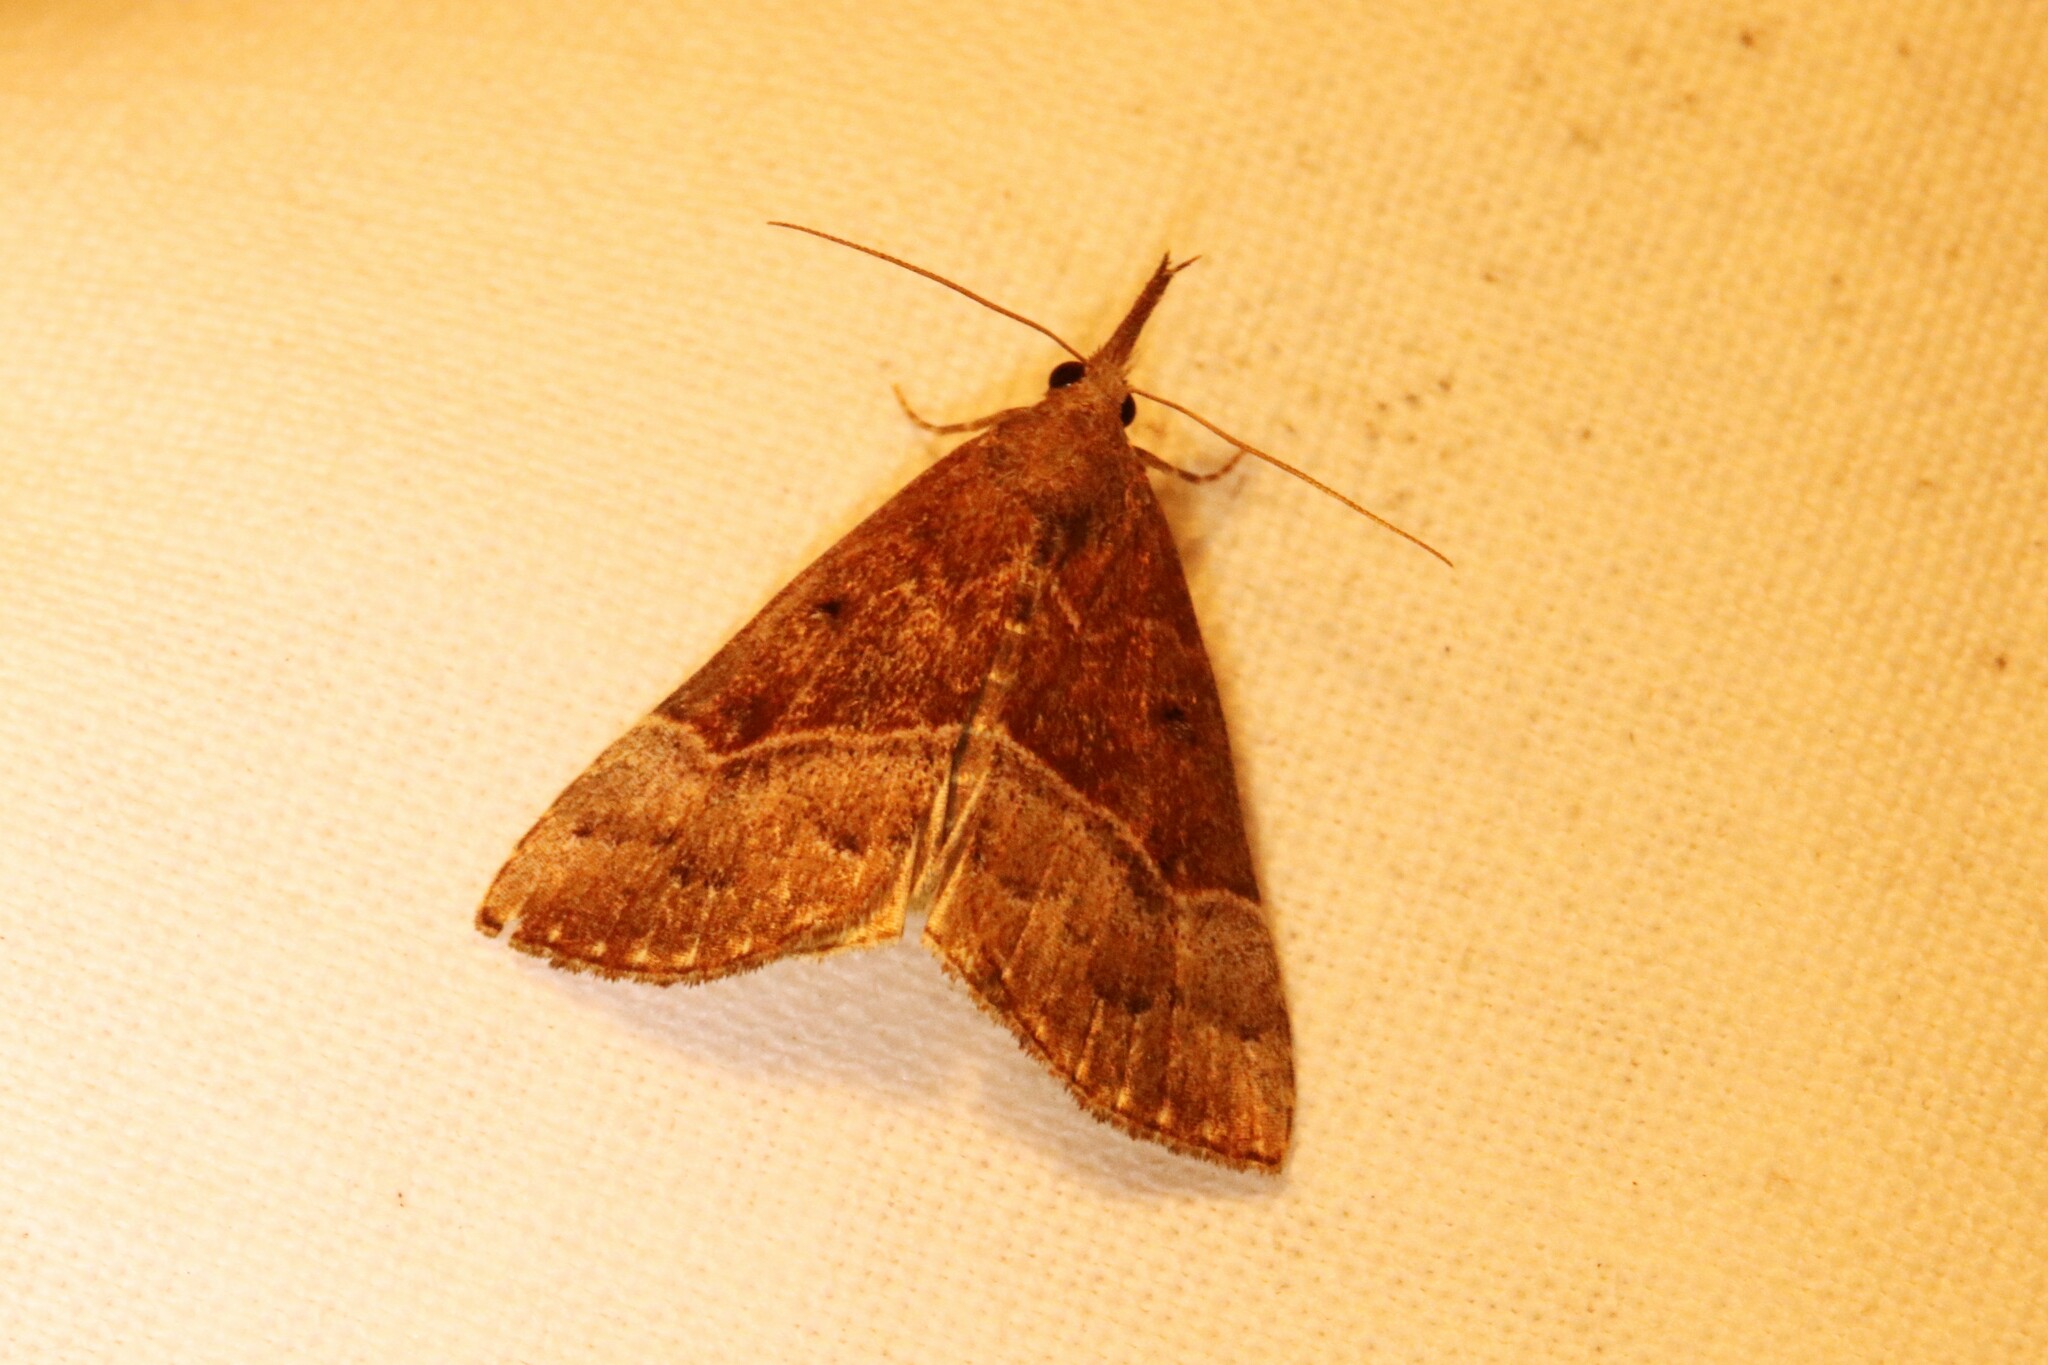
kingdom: Animalia
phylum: Arthropoda
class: Insecta
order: Lepidoptera
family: Erebidae
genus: Hypena
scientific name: Hypena eductalis
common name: Red-footed snout
